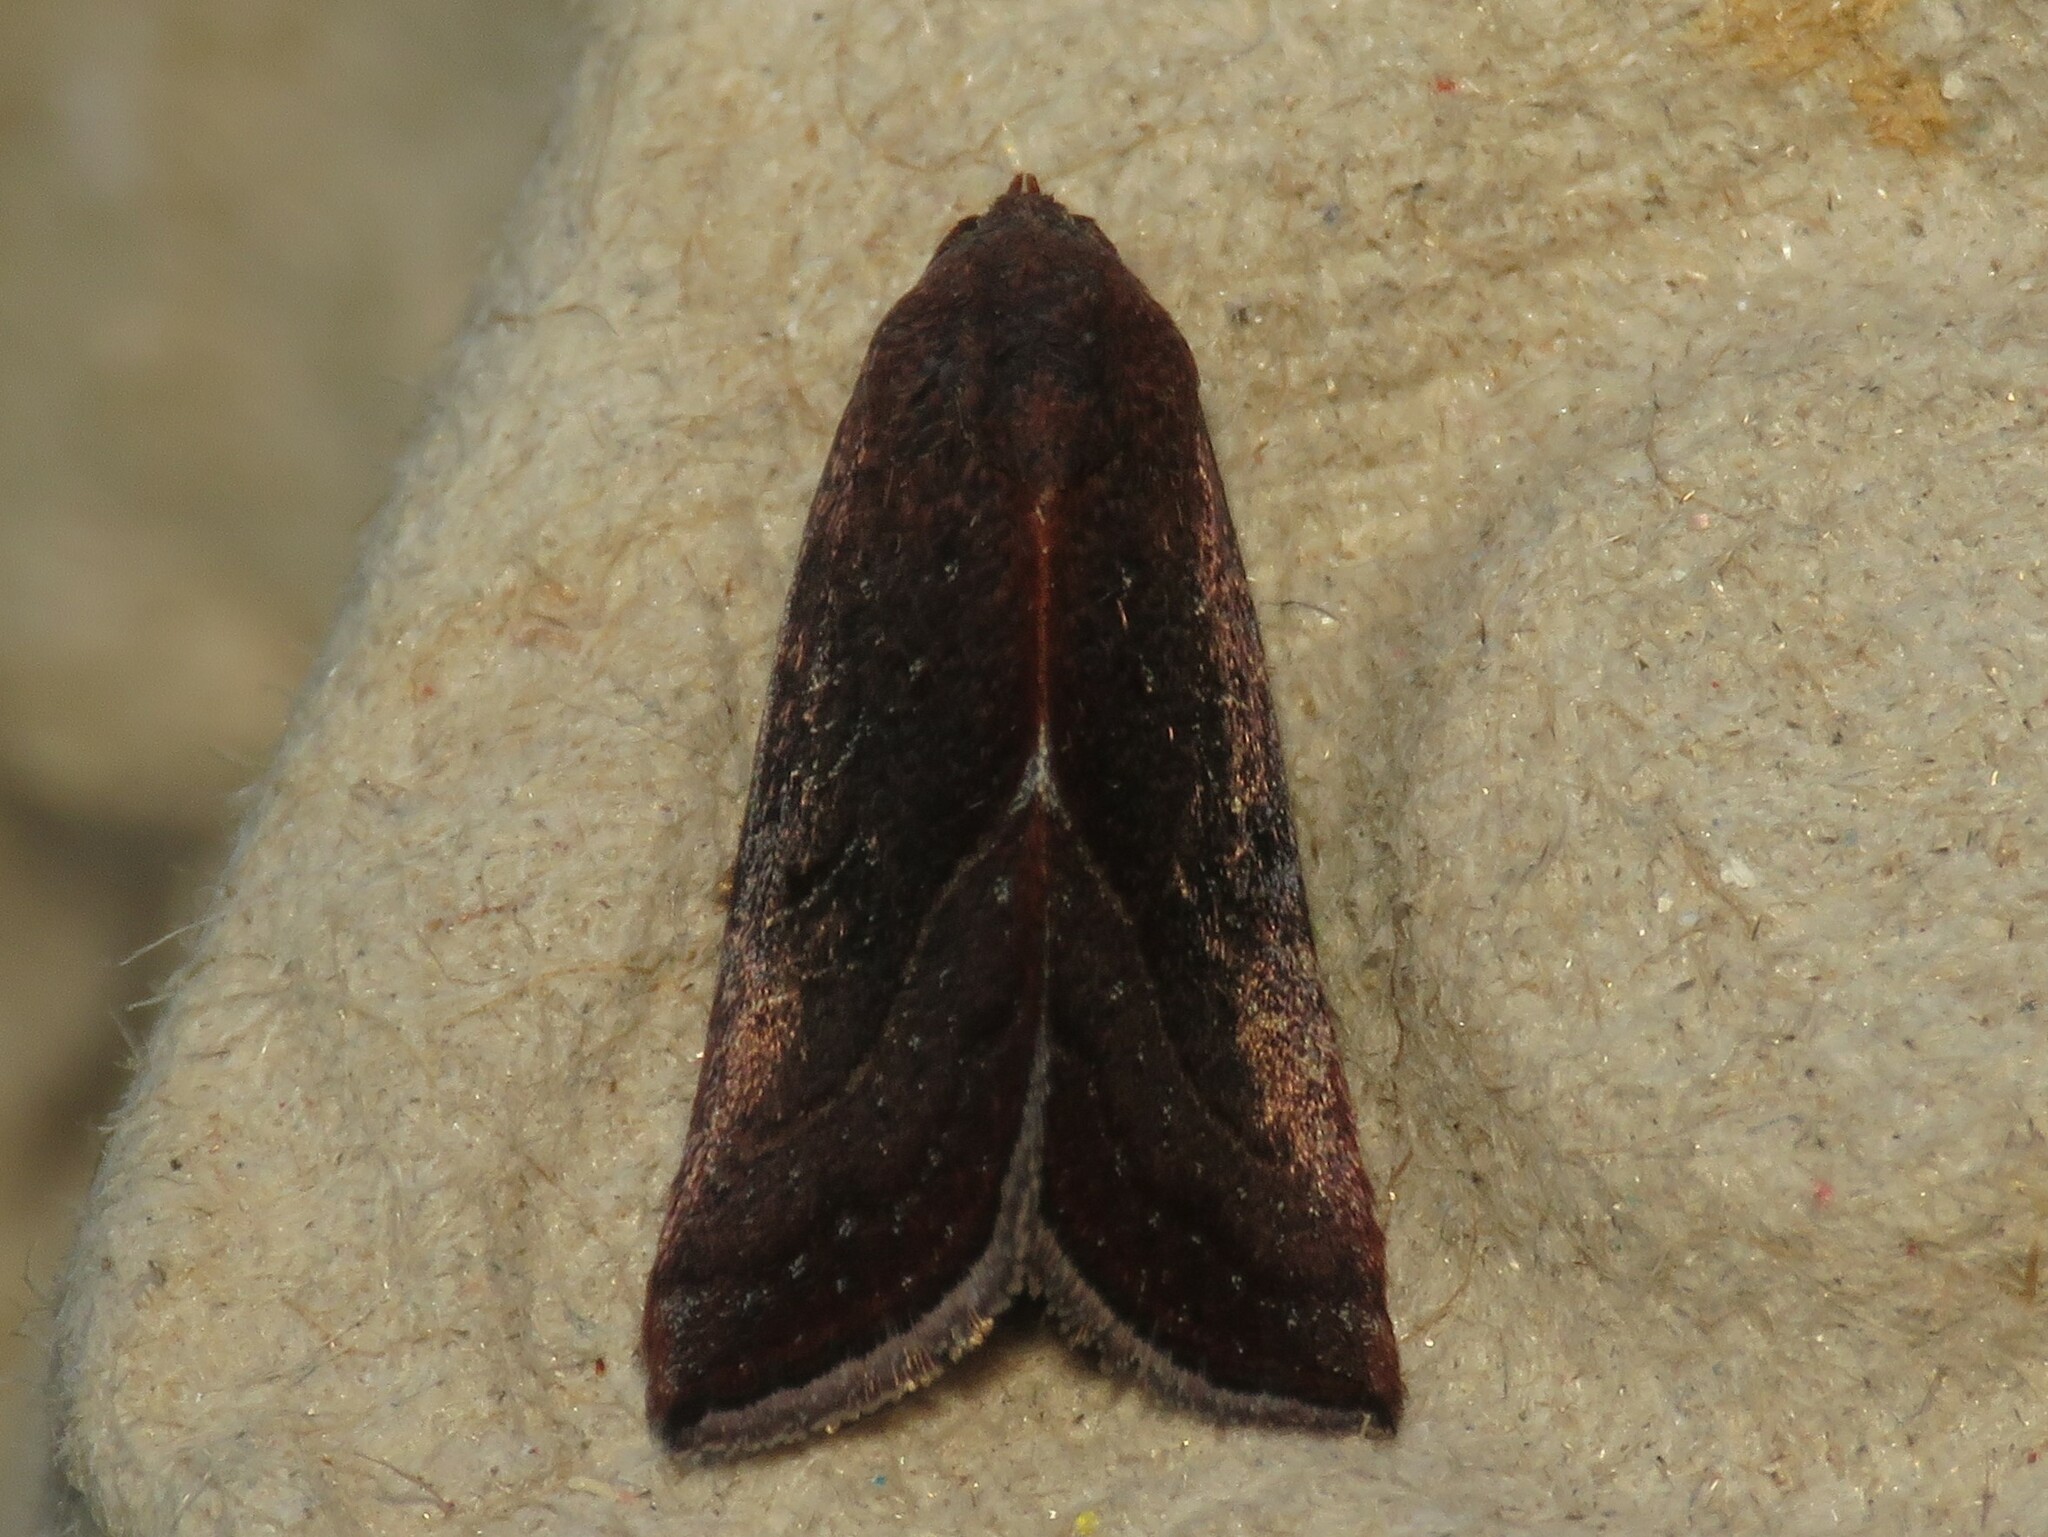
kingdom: Animalia
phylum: Arthropoda
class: Insecta
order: Lepidoptera
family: Noctuidae
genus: Galgula
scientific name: Galgula partita
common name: Wedgeling
